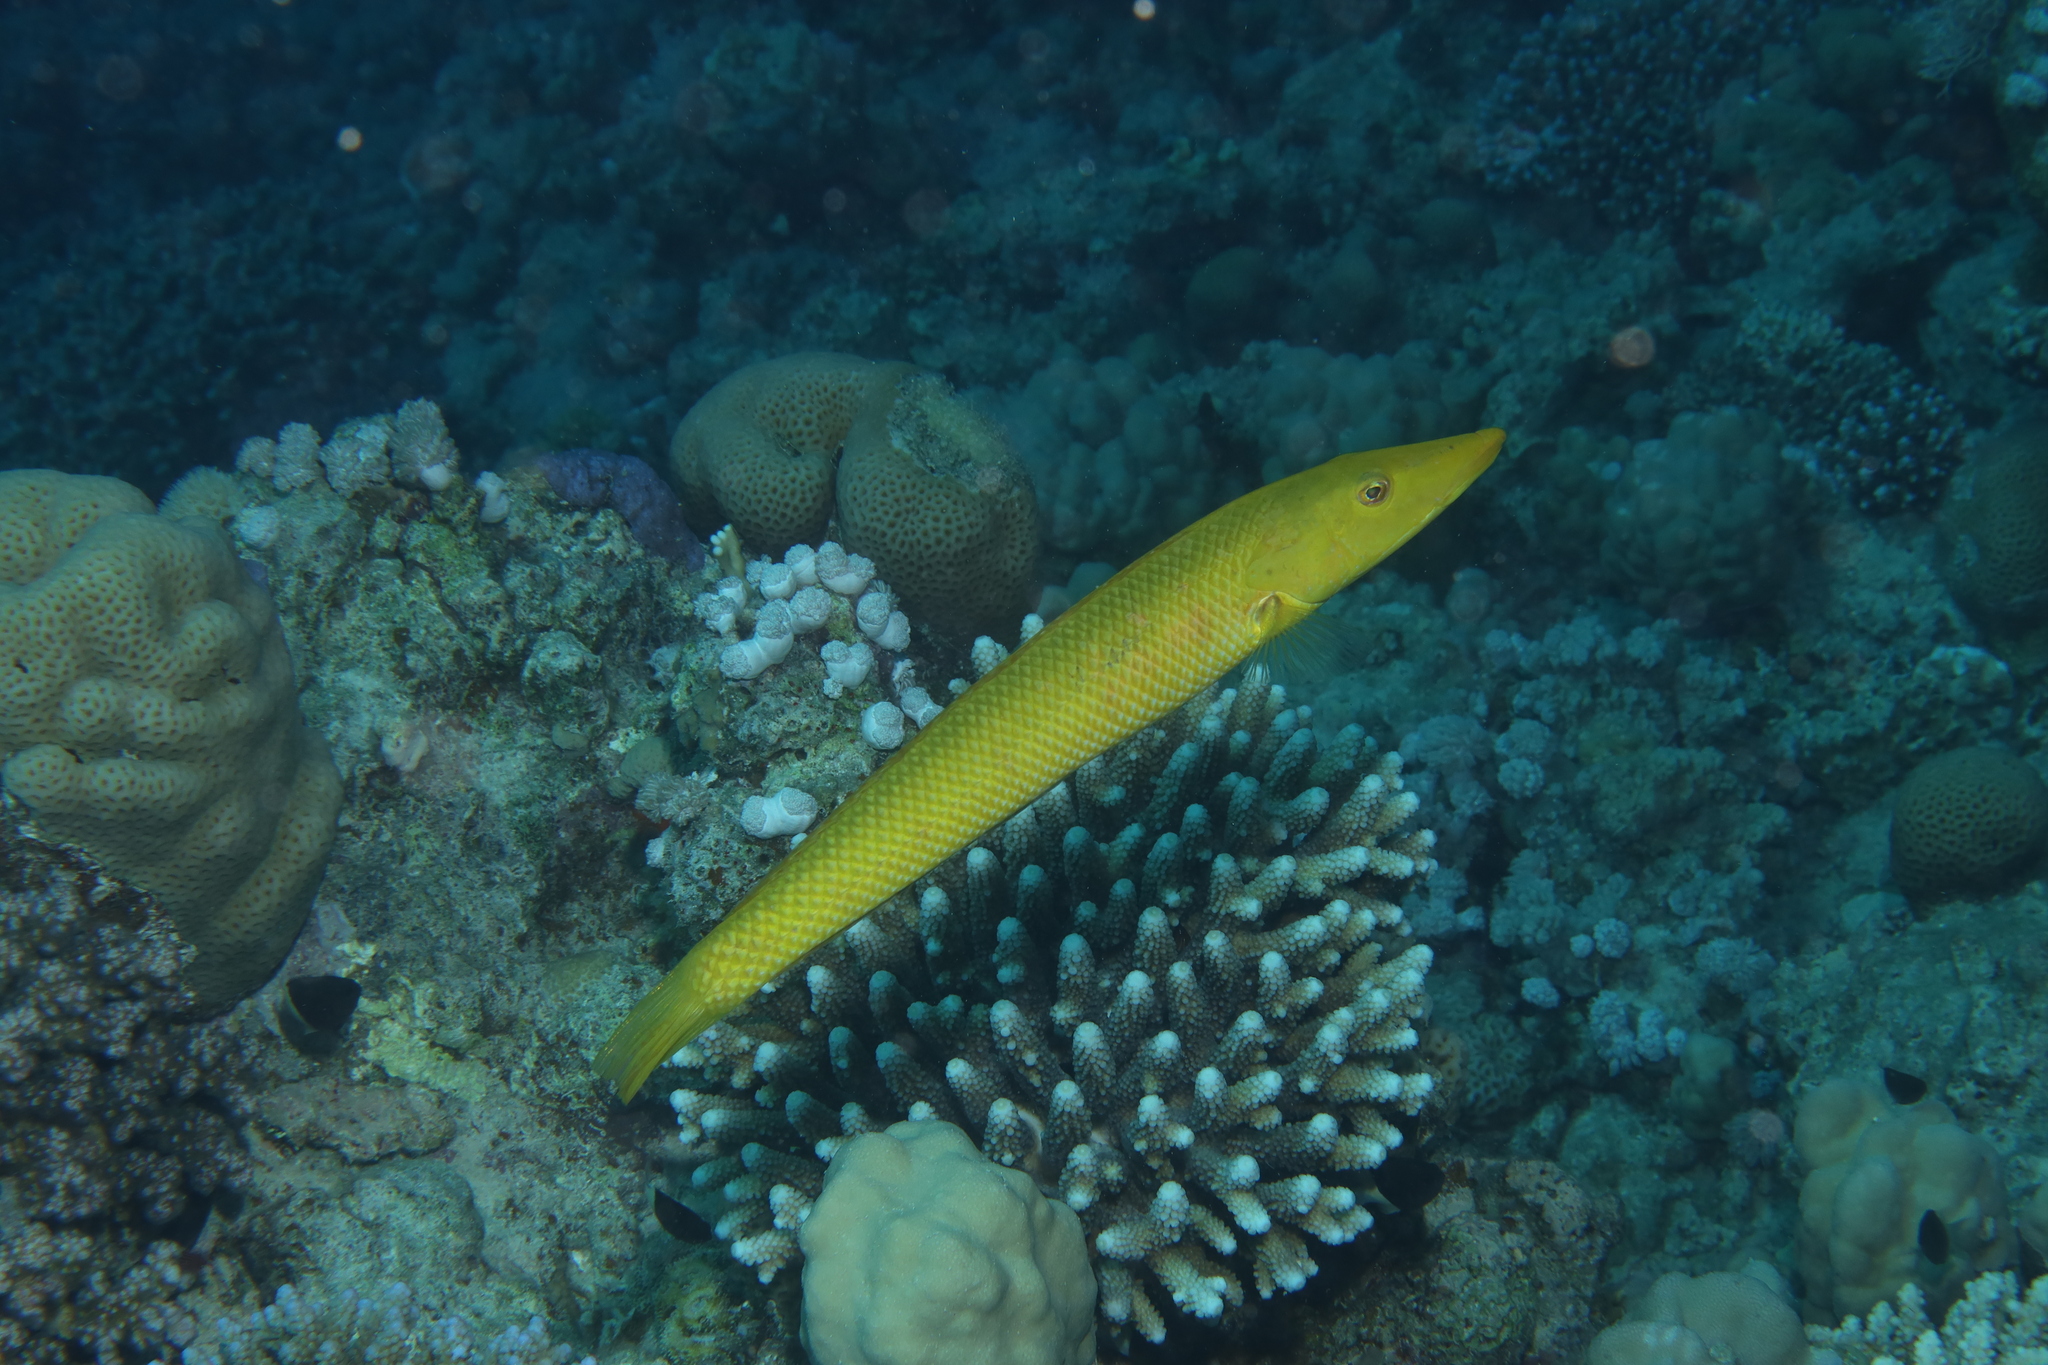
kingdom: Animalia
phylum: Chordata
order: Perciformes
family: Labridae
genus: Cheilio
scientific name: Cheilio inermis
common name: Cigar wrasse
